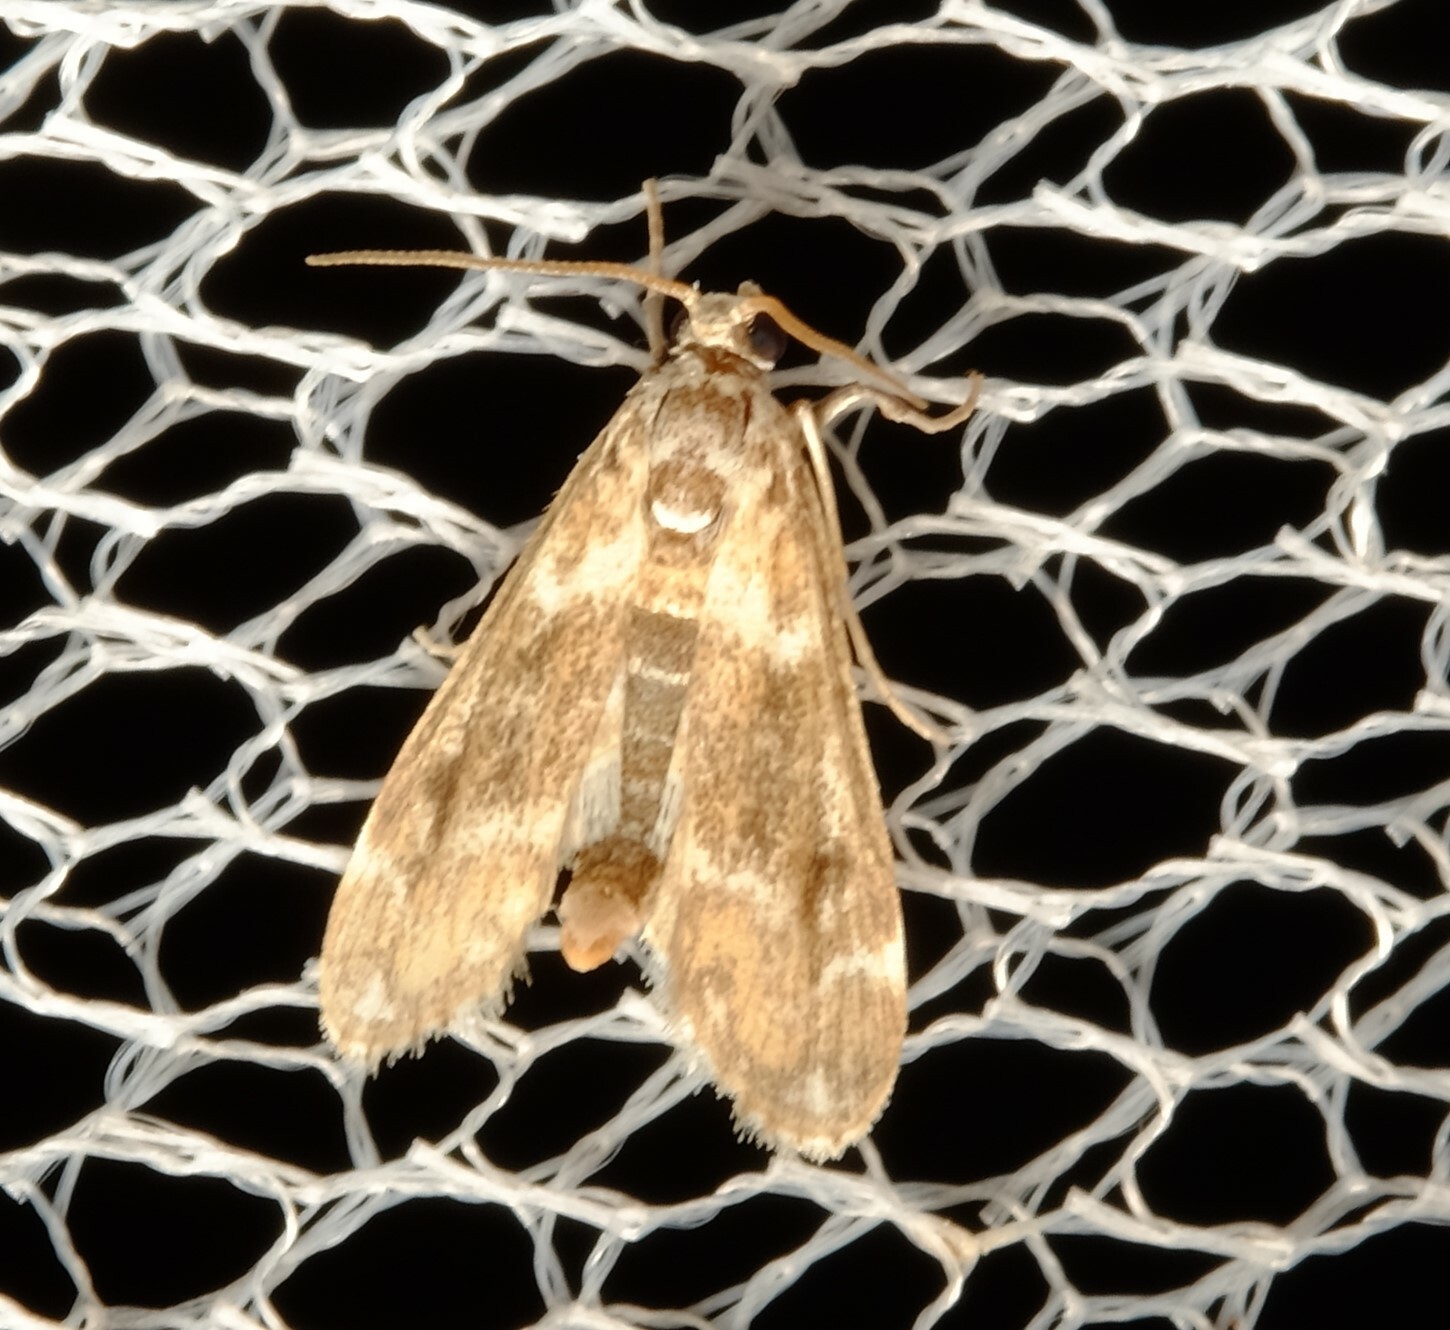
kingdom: Animalia
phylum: Arthropoda
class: Insecta
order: Lepidoptera
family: Crambidae
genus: Hygraula
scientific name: Hygraula nitens
